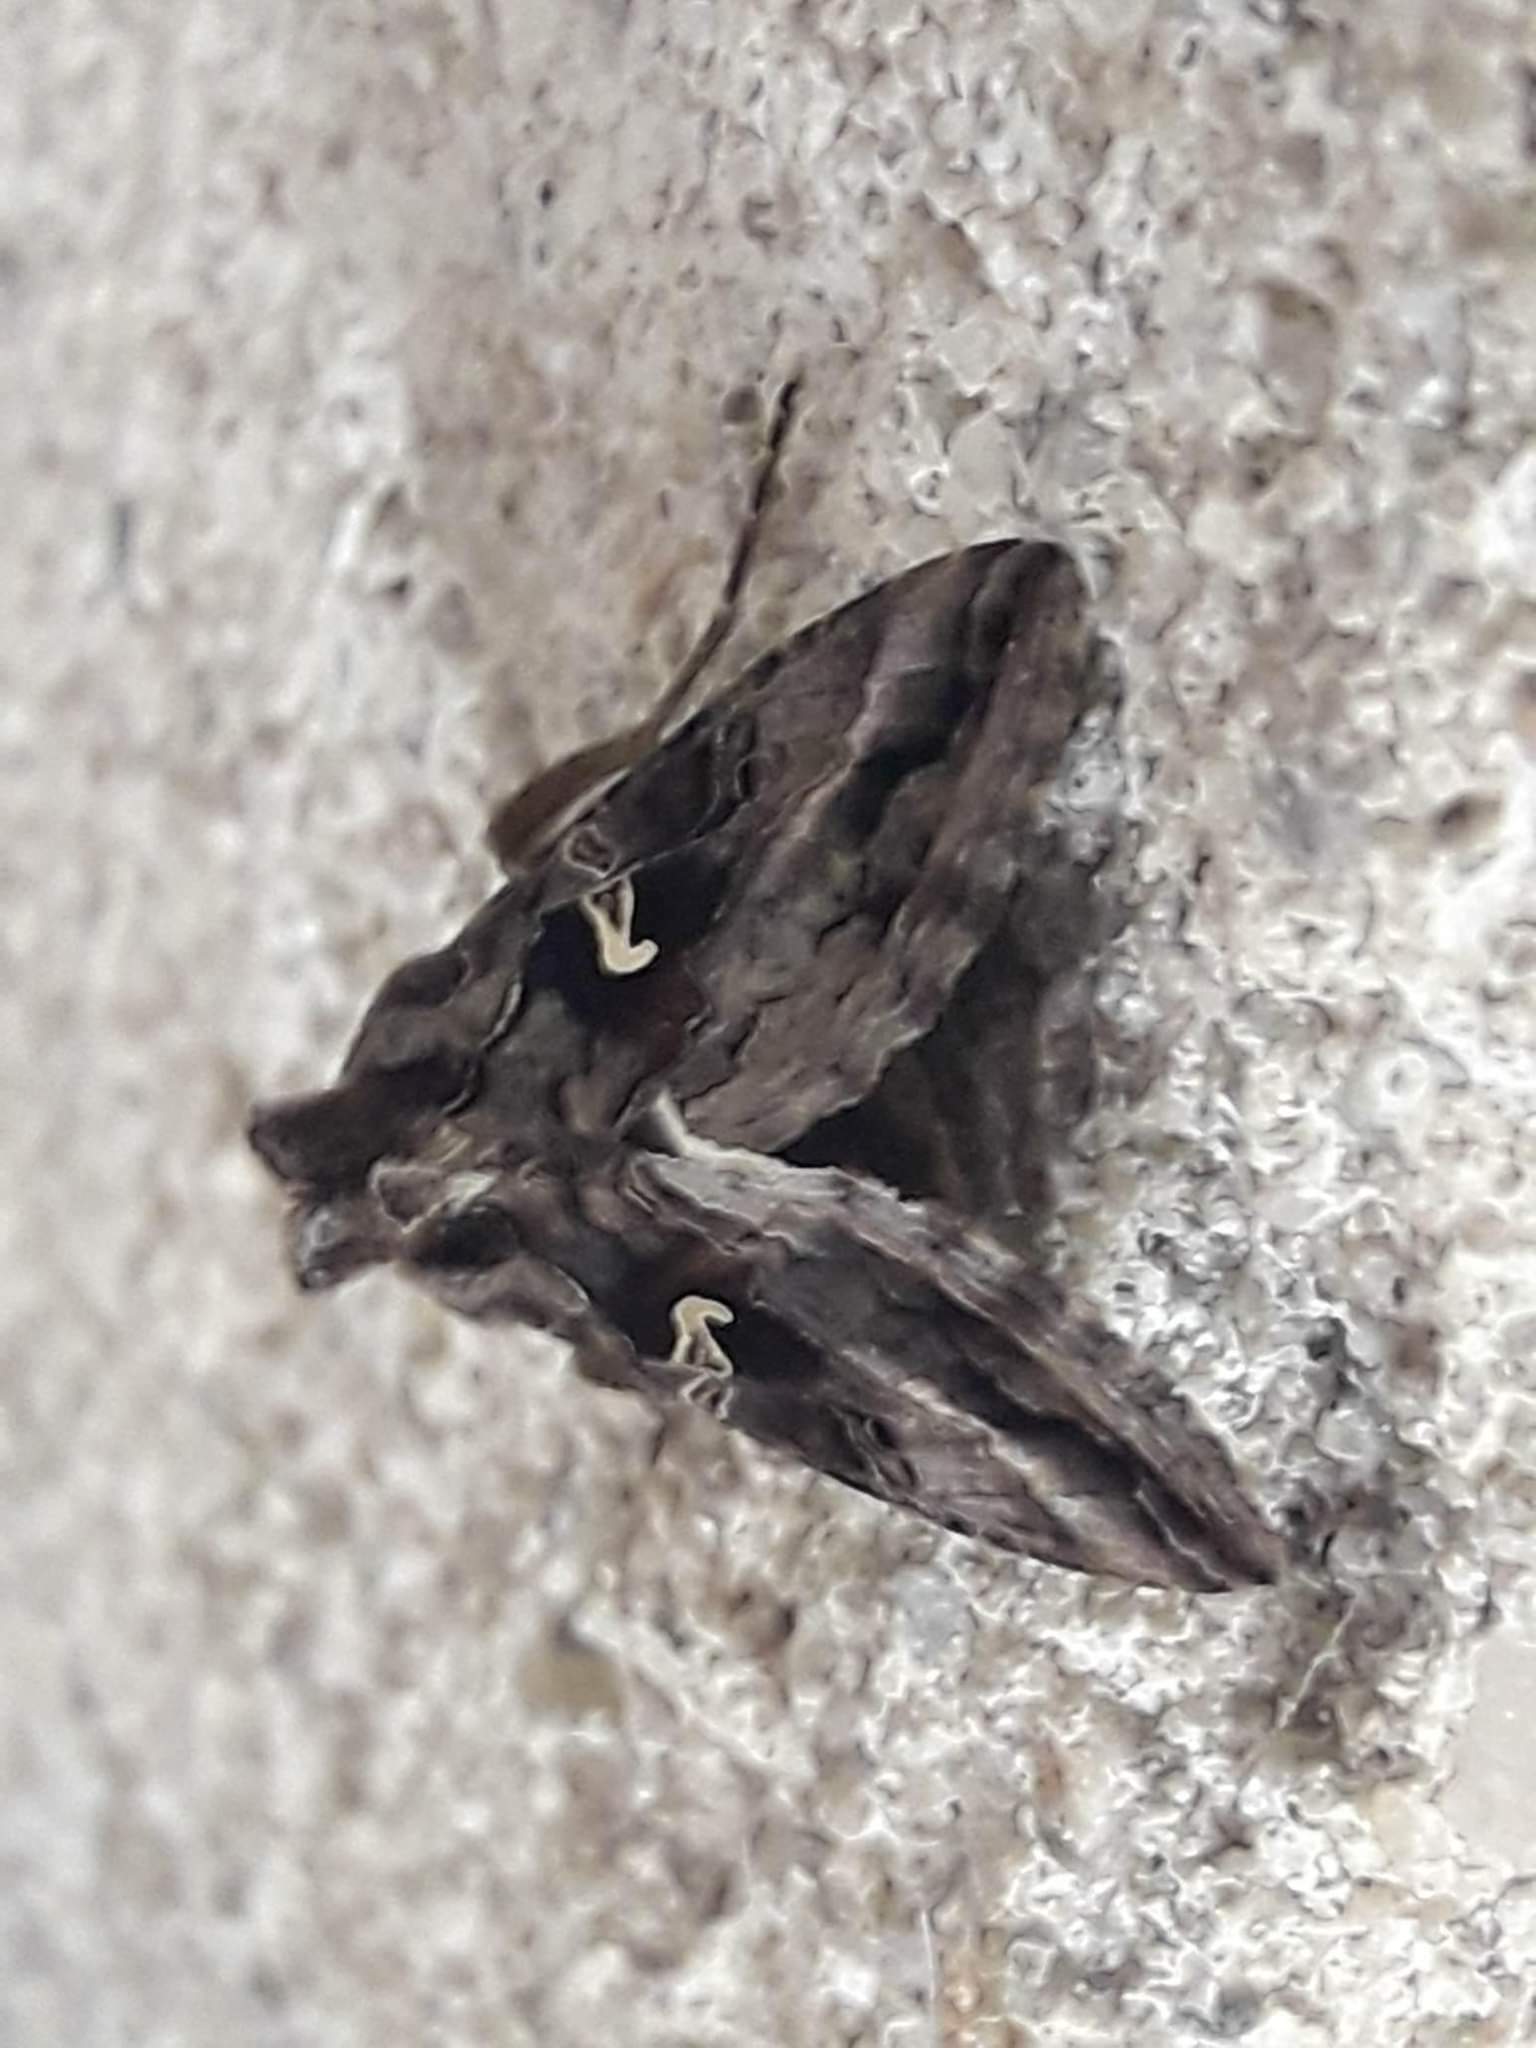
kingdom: Animalia
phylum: Arthropoda
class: Insecta
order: Lepidoptera
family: Noctuidae
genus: Autographa
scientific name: Autographa gamma
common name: Silver y
